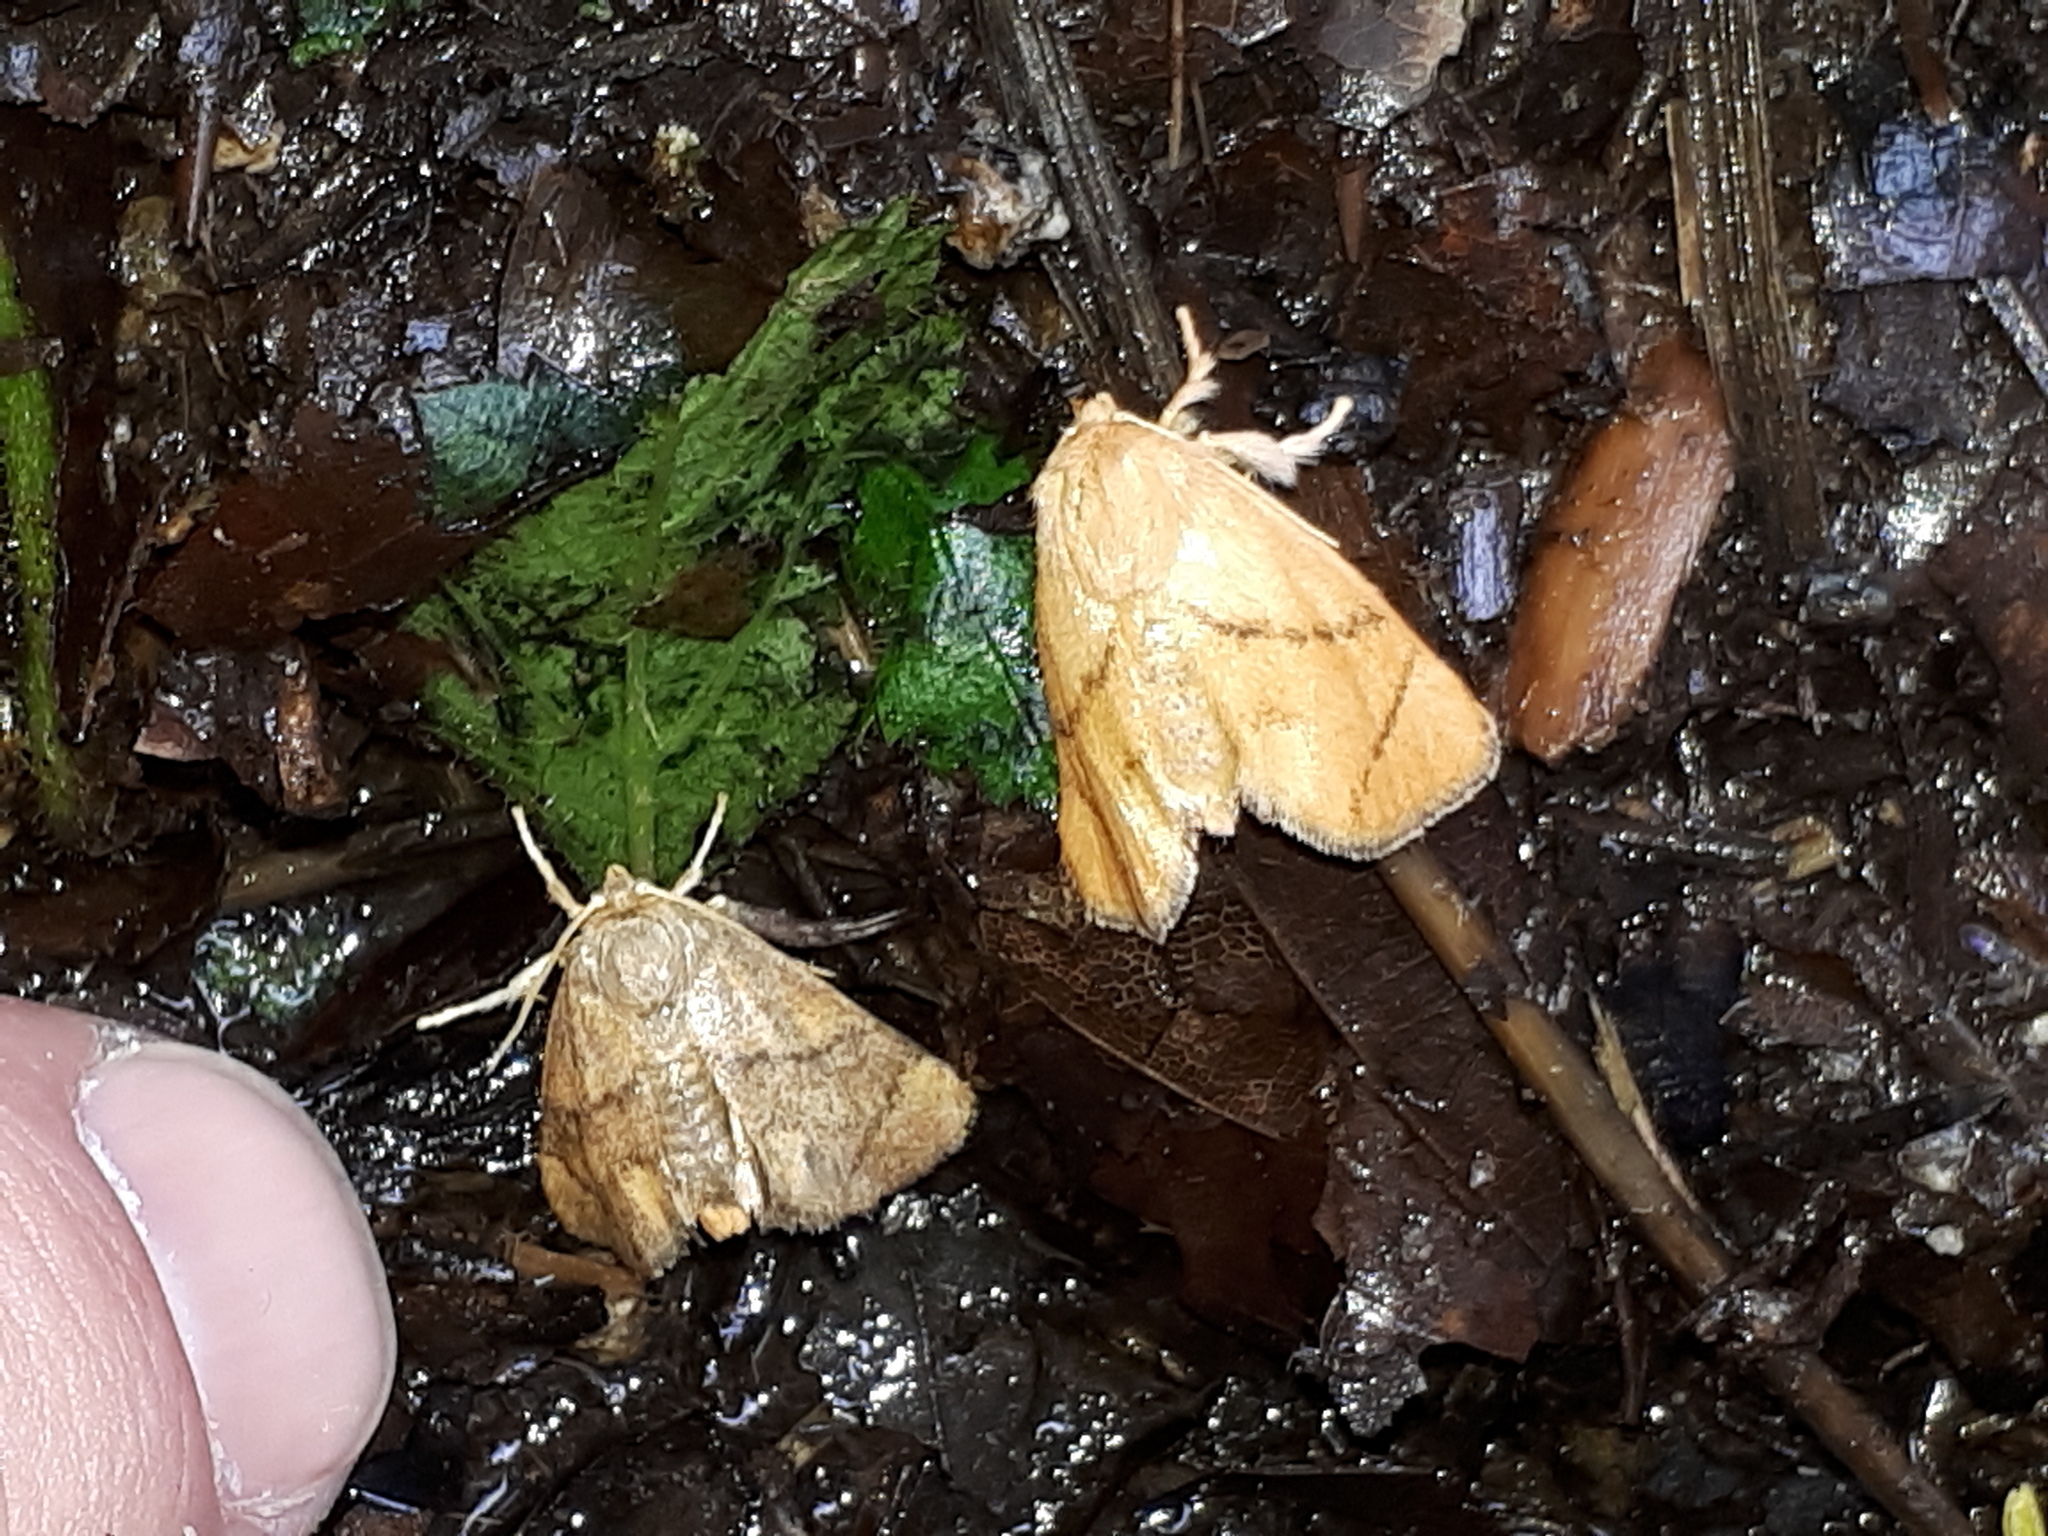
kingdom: Animalia
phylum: Arthropoda
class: Insecta
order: Lepidoptera
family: Limacodidae
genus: Apoda
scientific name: Apoda limacodes
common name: Festoon
